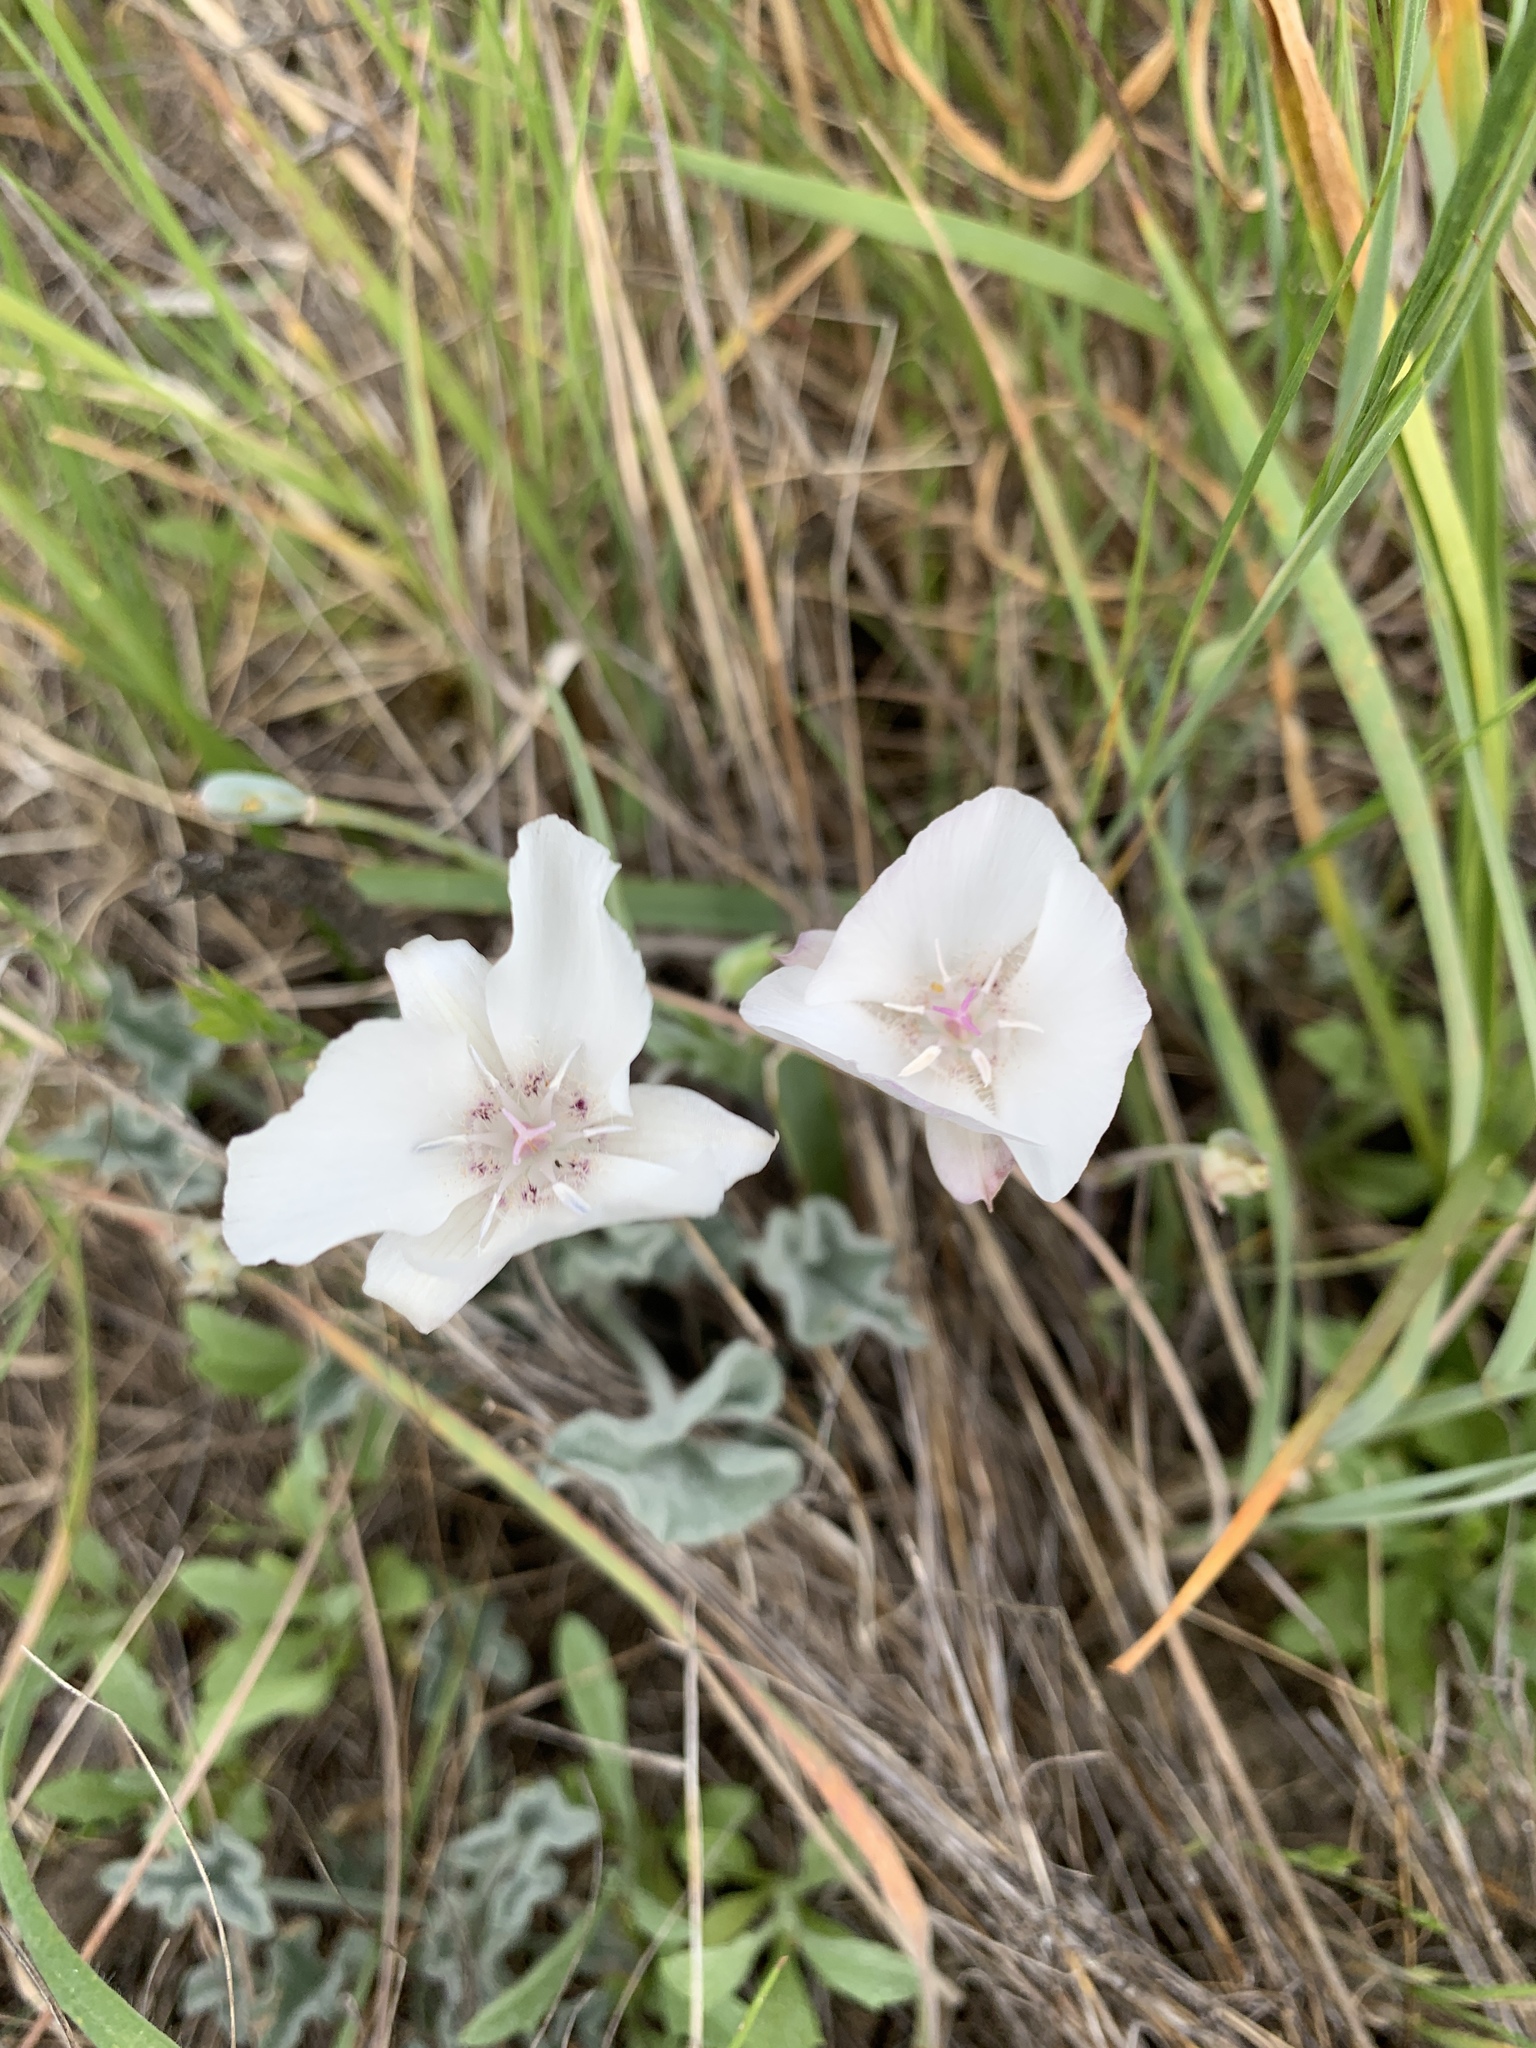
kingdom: Plantae
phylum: Tracheophyta
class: Liliopsida
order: Liliales
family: Liliaceae
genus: Calochortus
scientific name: Calochortus umbellatus
